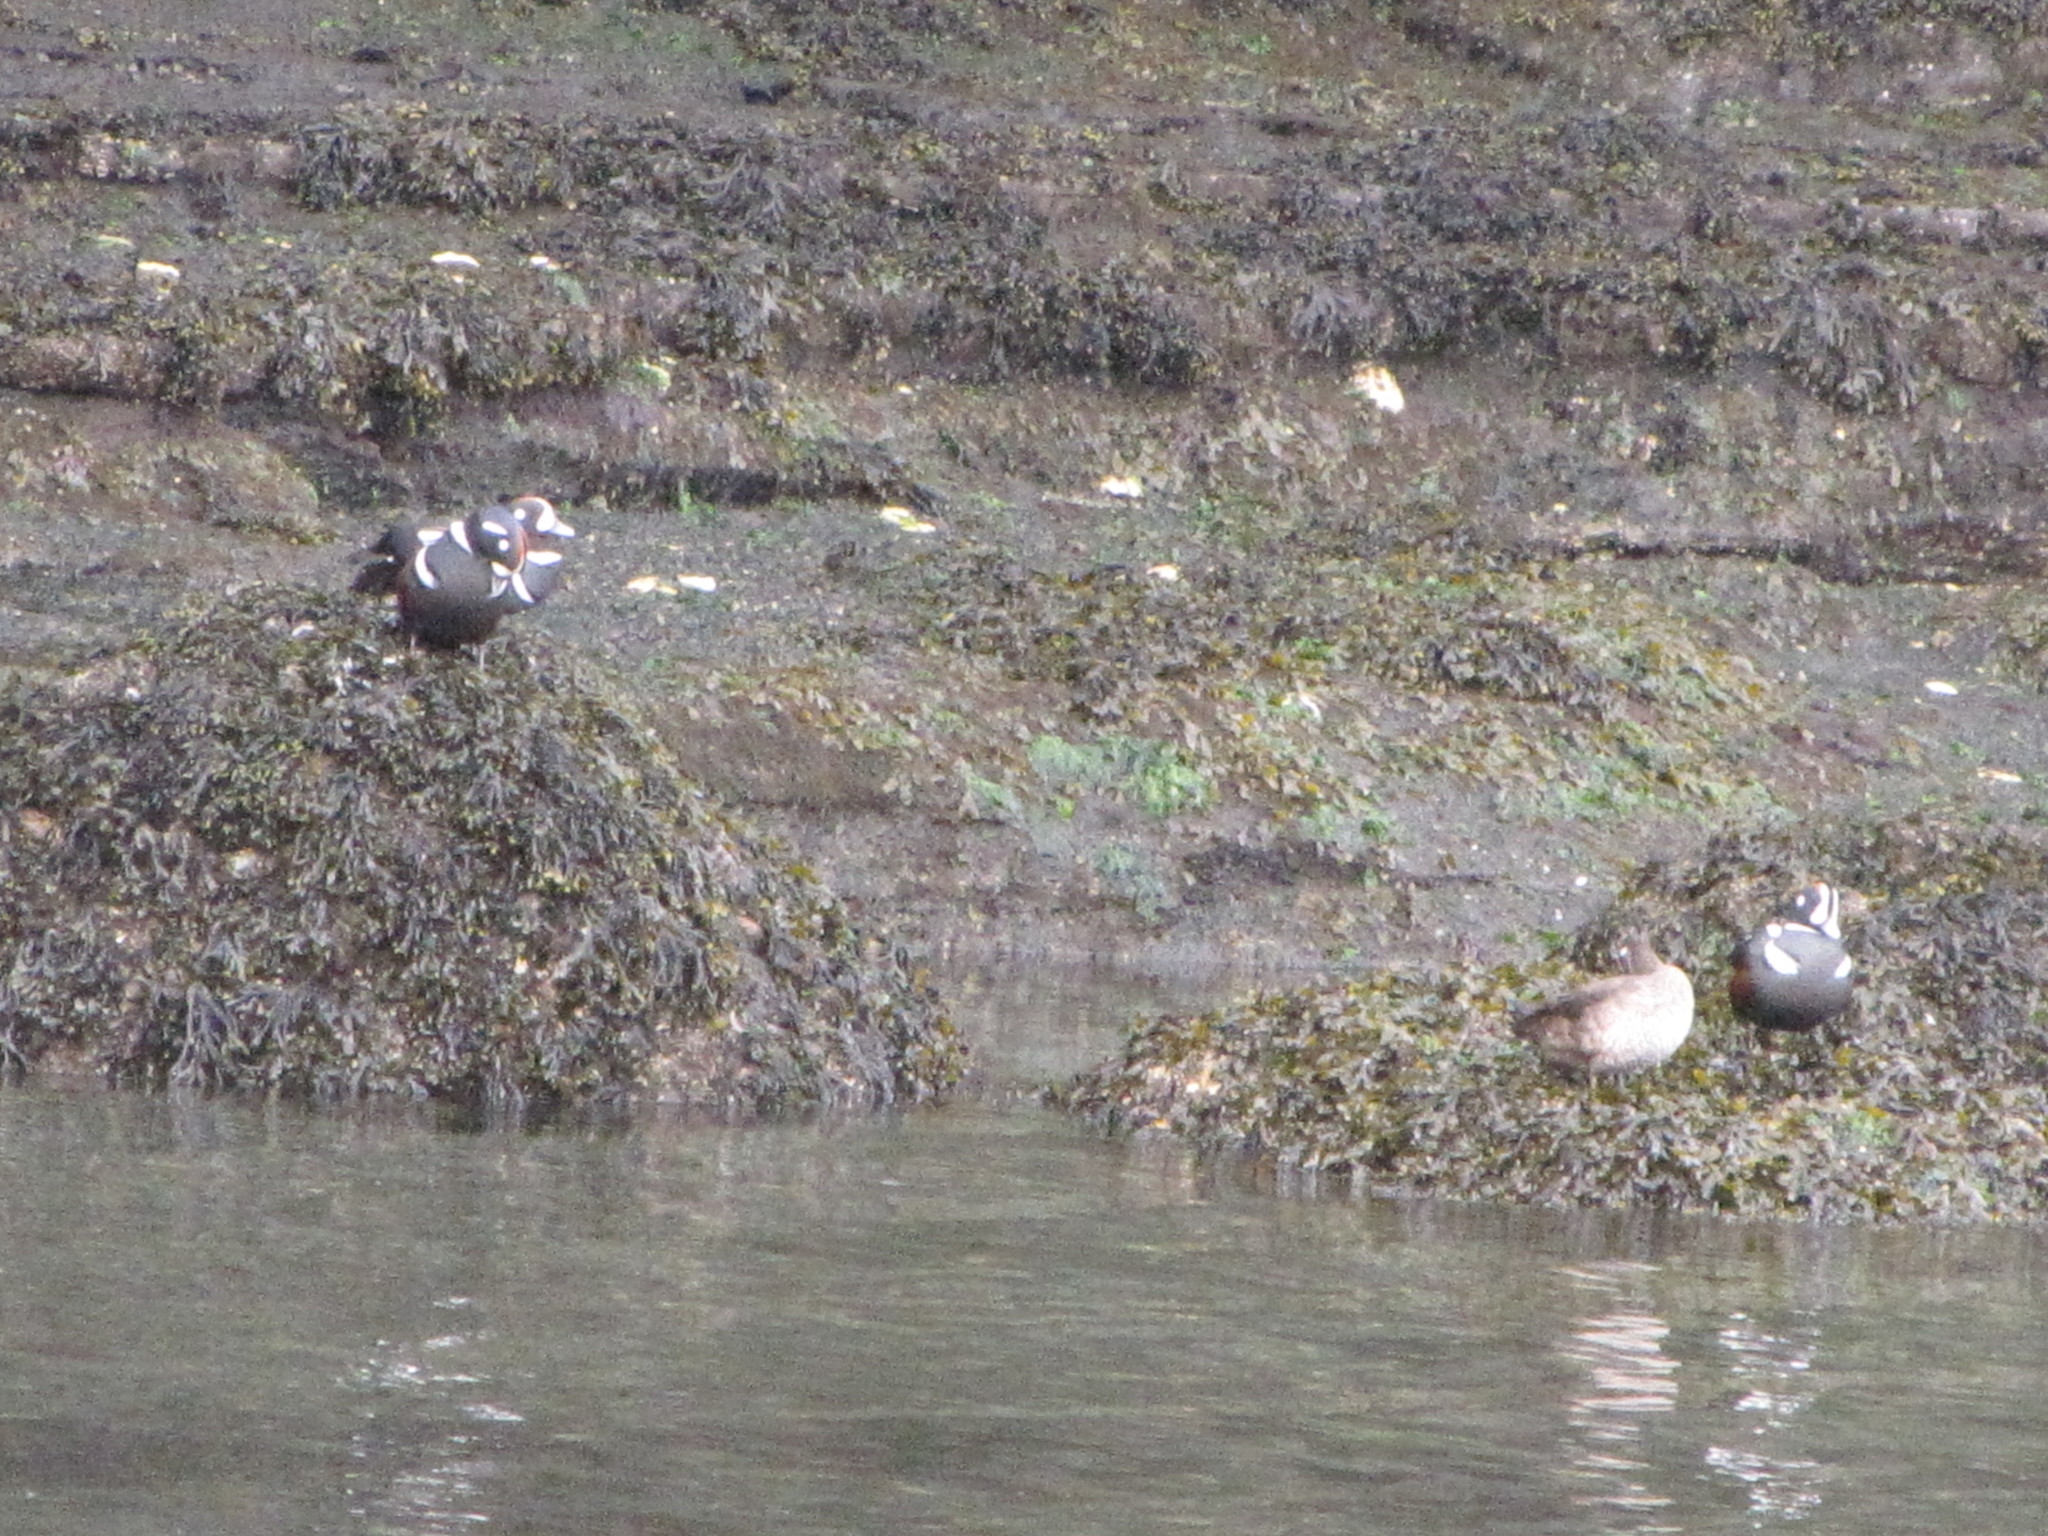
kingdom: Animalia
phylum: Chordata
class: Aves
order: Anseriformes
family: Anatidae
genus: Histrionicus
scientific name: Histrionicus histrionicus
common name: Harlequin duck
